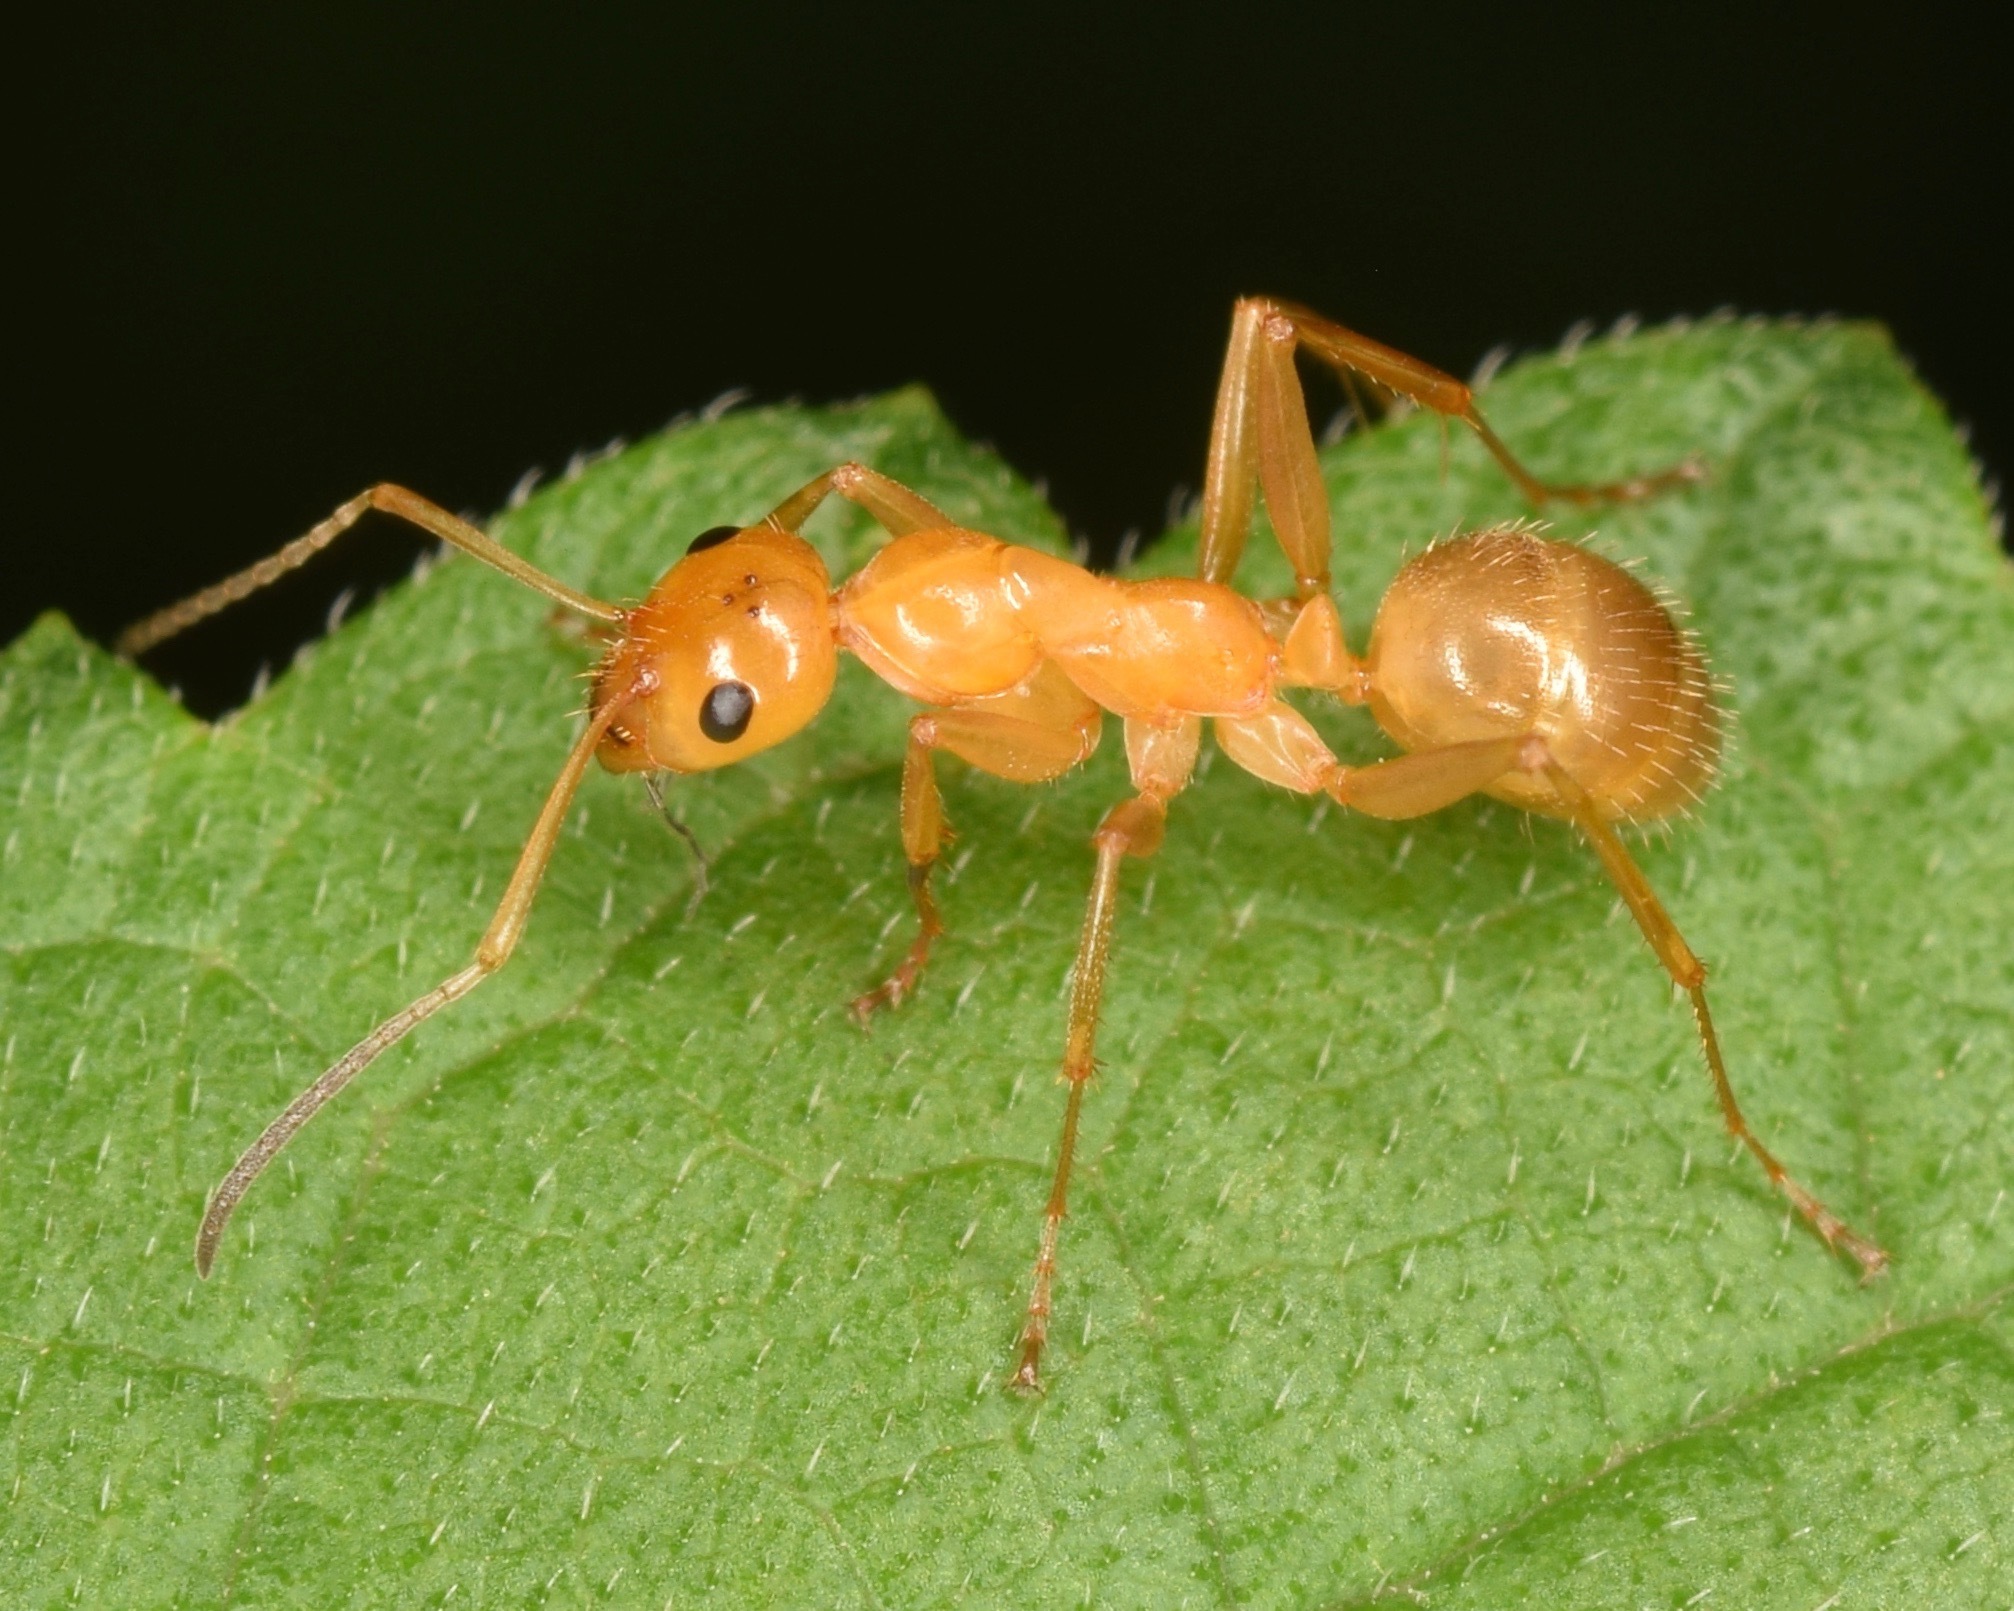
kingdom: Animalia
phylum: Arthropoda
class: Insecta
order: Hymenoptera
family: Formicidae
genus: Formica
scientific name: Formica pallidefulva
